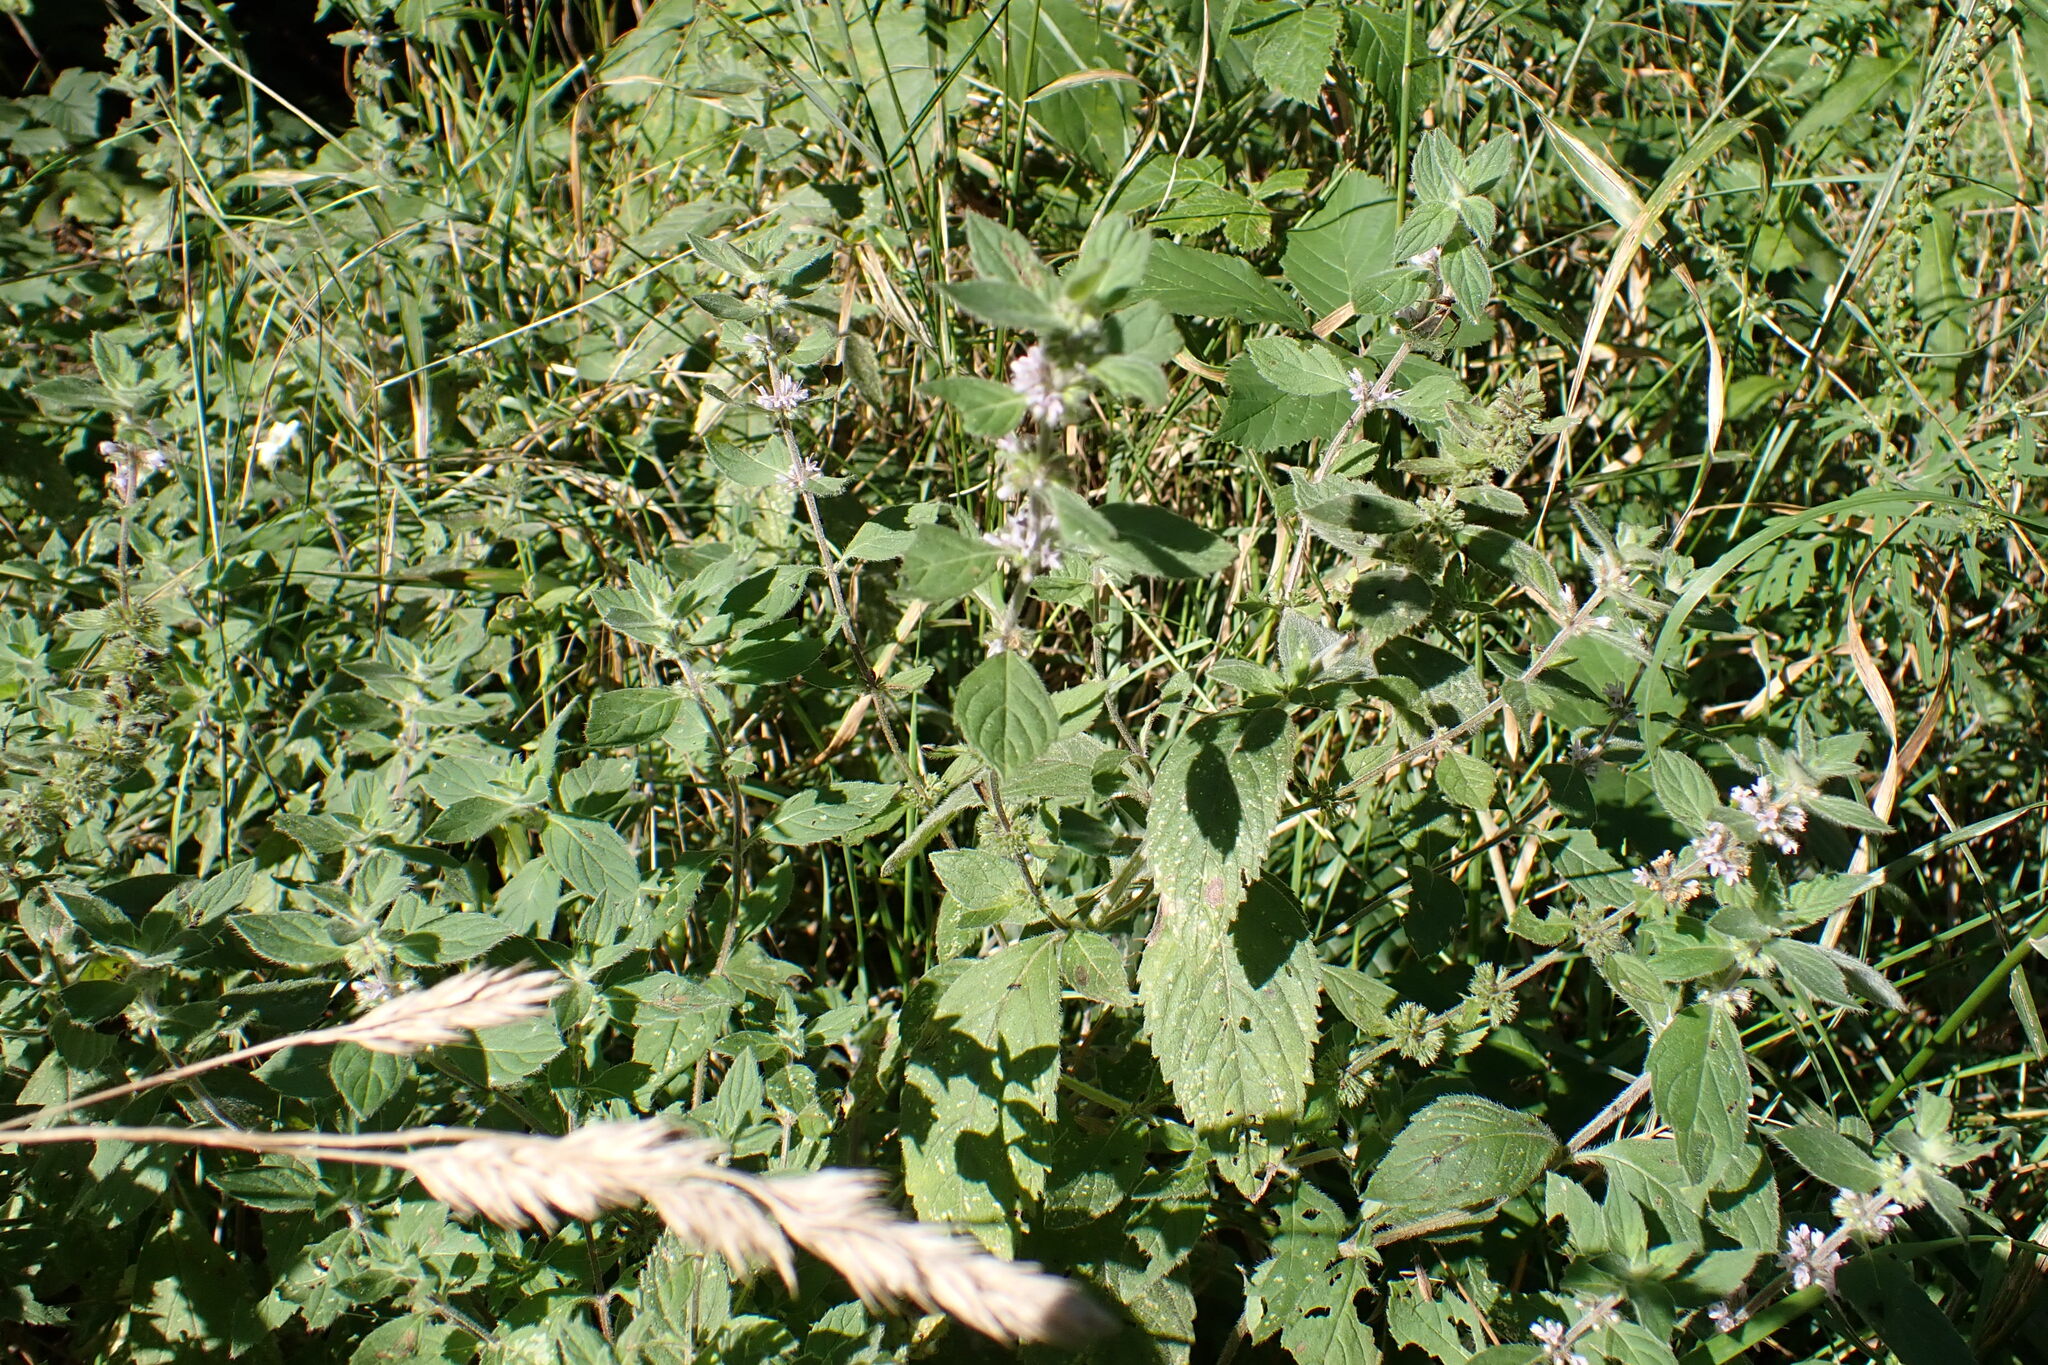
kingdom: Plantae
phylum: Tracheophyta
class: Magnoliopsida
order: Lamiales
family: Lamiaceae
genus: Mentha
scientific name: Mentha verticillata
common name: Mint
